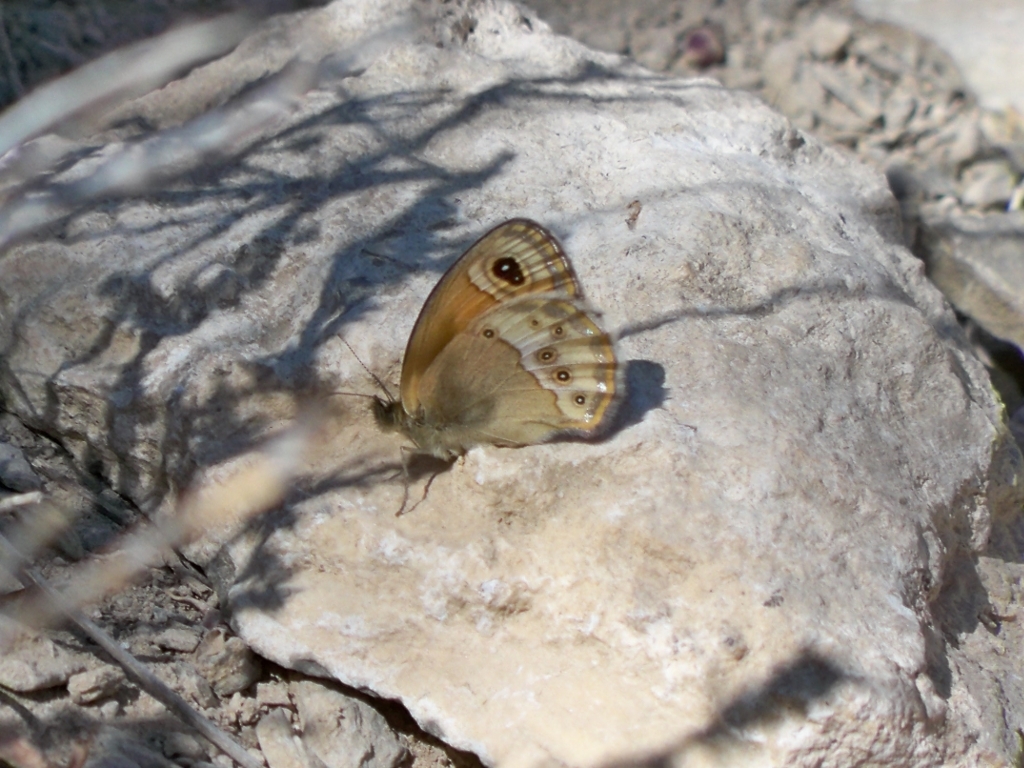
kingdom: Animalia
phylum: Arthropoda
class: Insecta
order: Lepidoptera
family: Nymphalidae
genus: Coenonympha
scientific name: Coenonympha dorus
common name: Dusky heath
